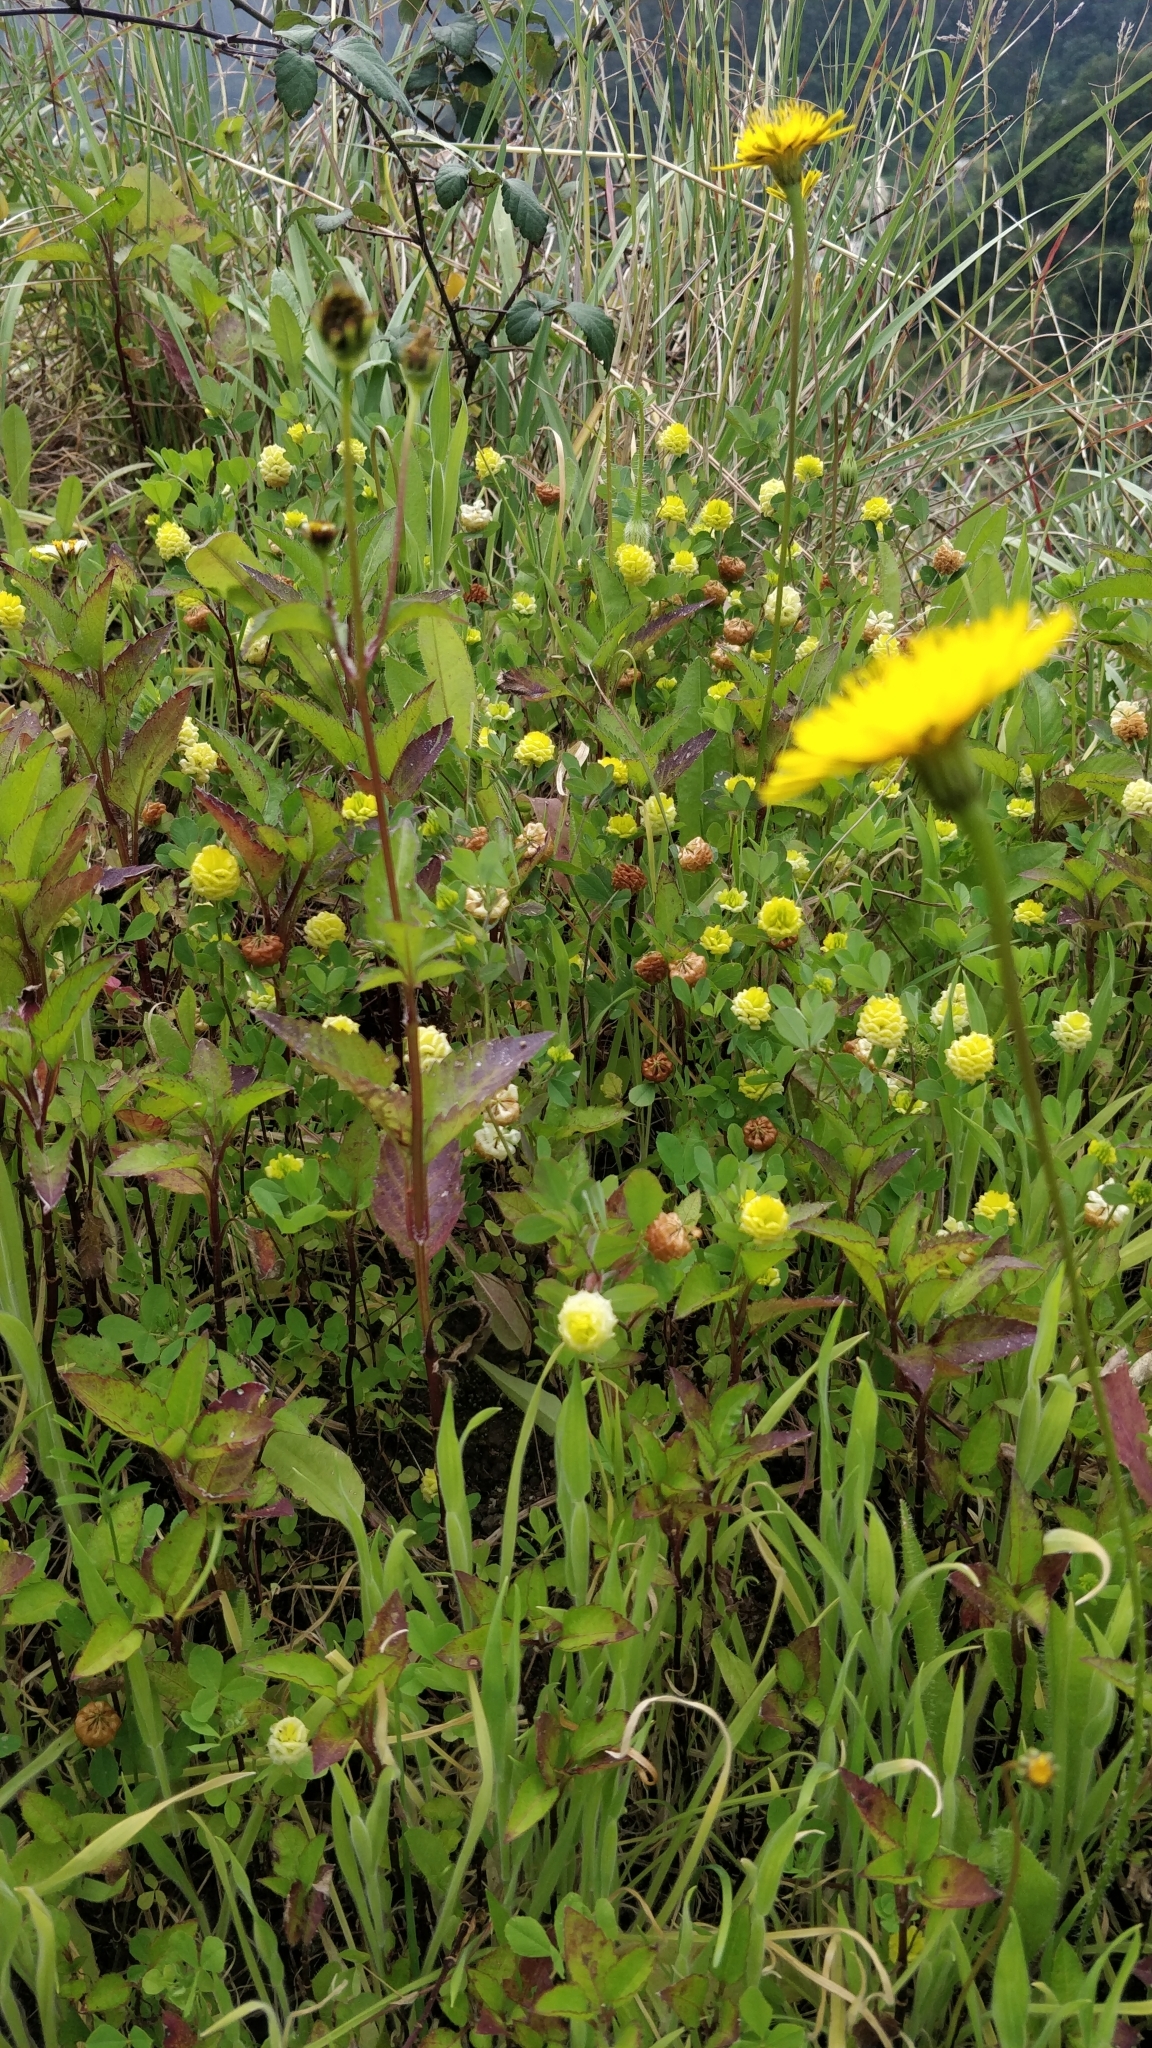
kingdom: Plantae
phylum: Tracheophyta
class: Magnoliopsida
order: Fabales
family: Fabaceae
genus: Trifolium
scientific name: Trifolium campestre
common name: Field clover
